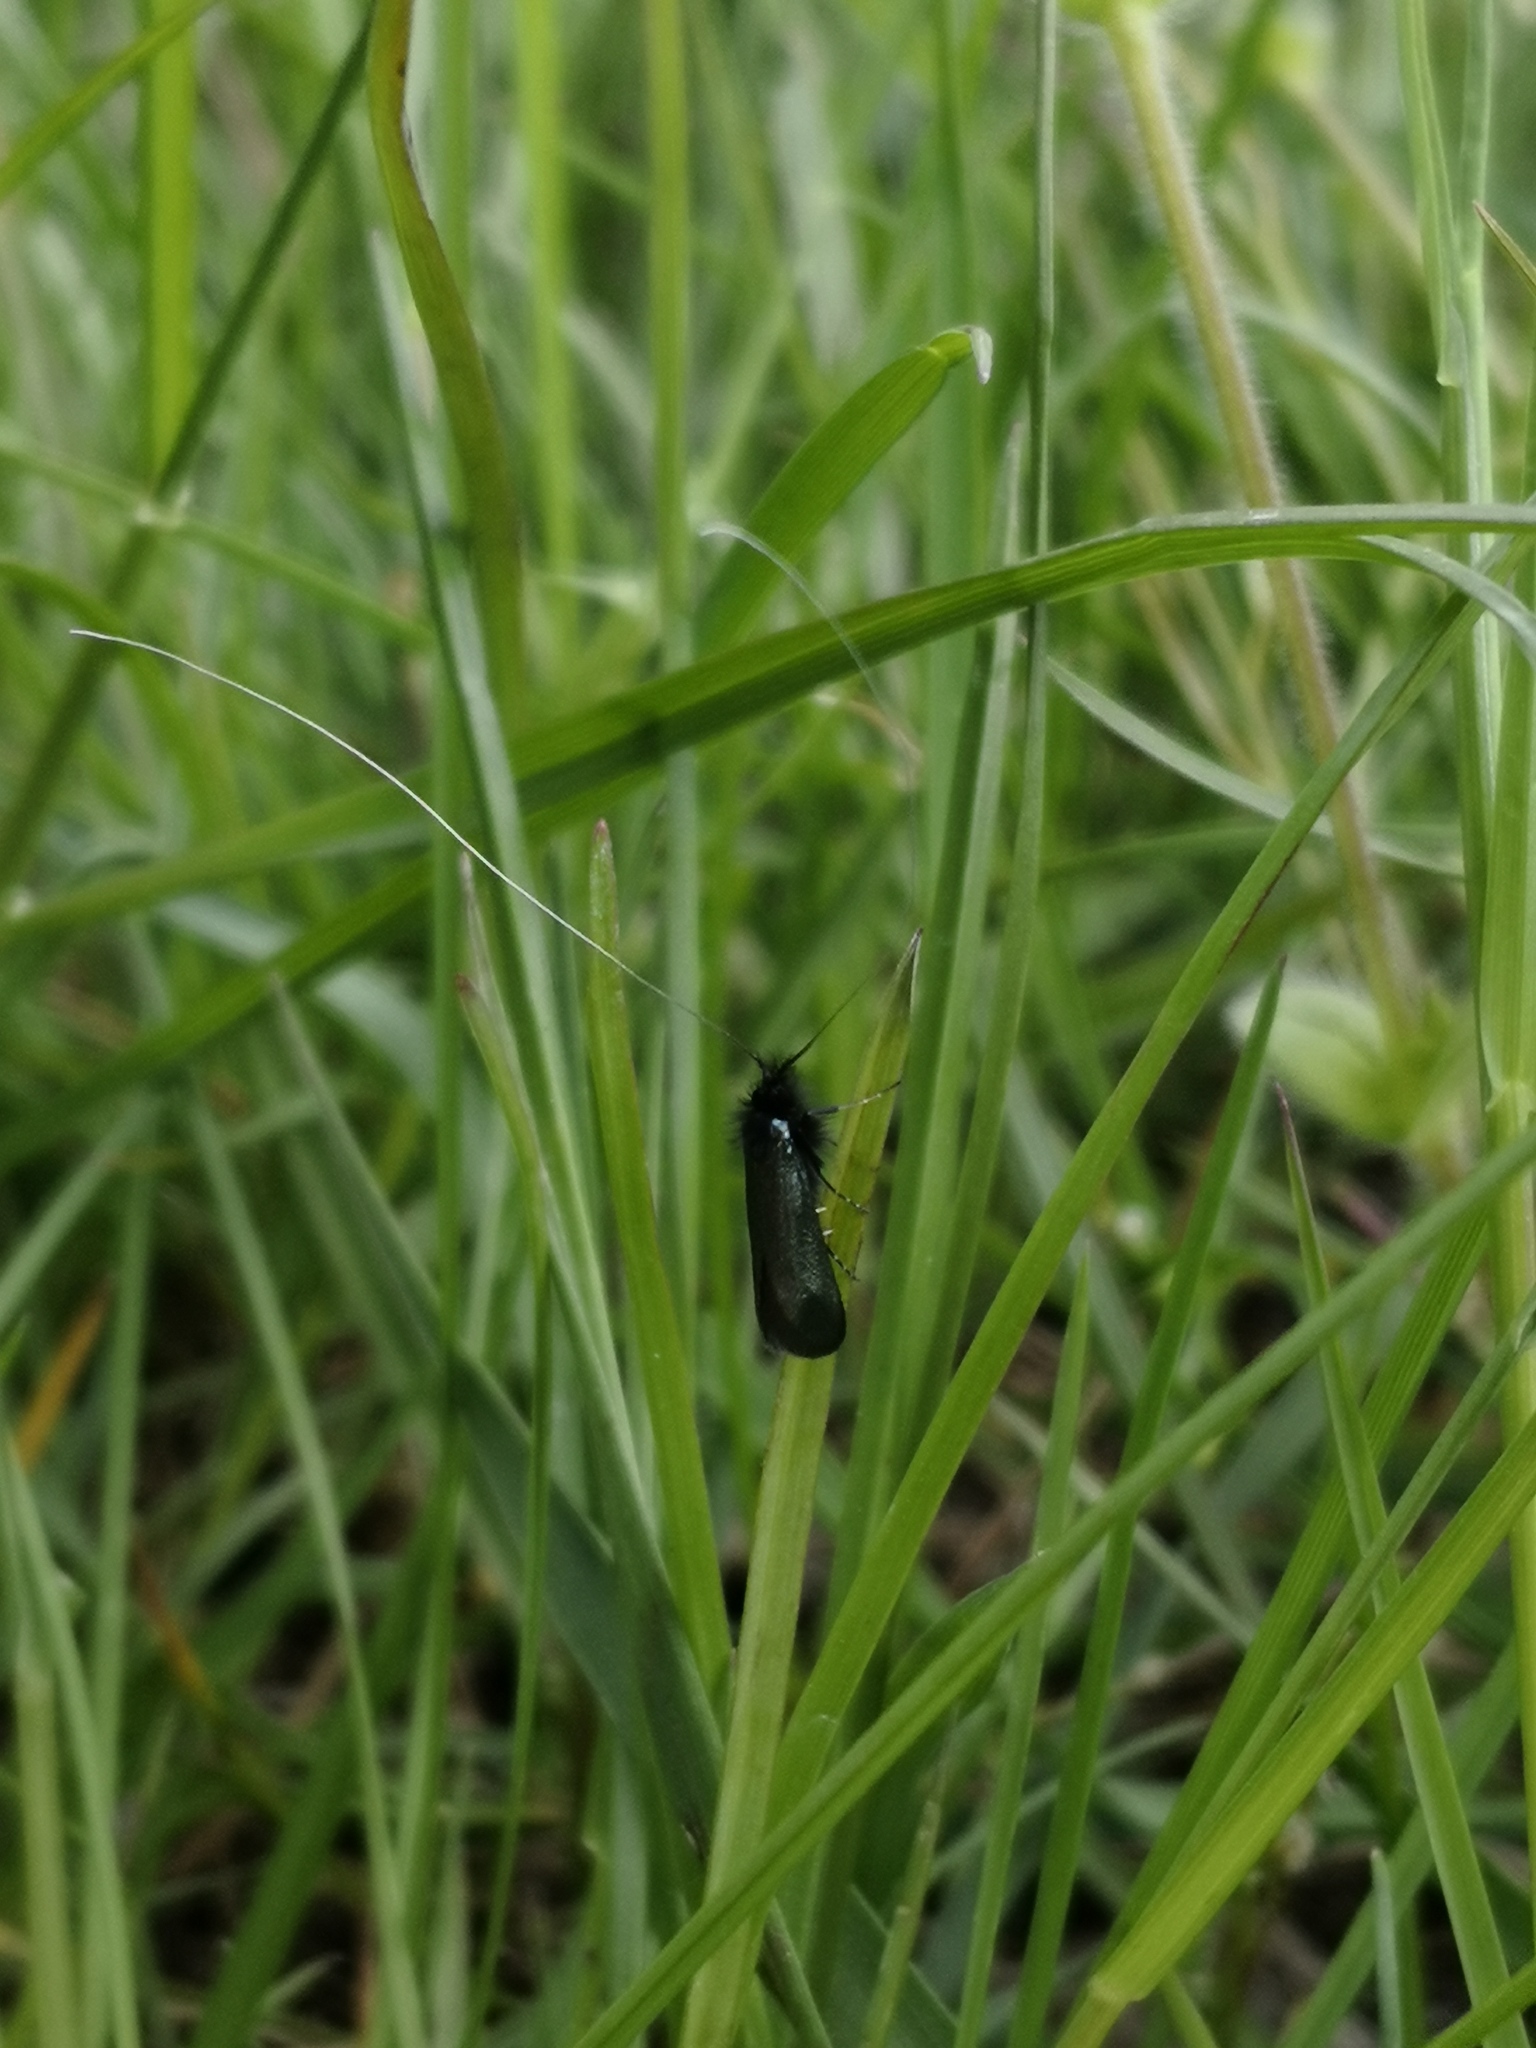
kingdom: Animalia
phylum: Arthropoda
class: Insecta
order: Lepidoptera
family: Adelidae
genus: Adela
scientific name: Adela viridella
